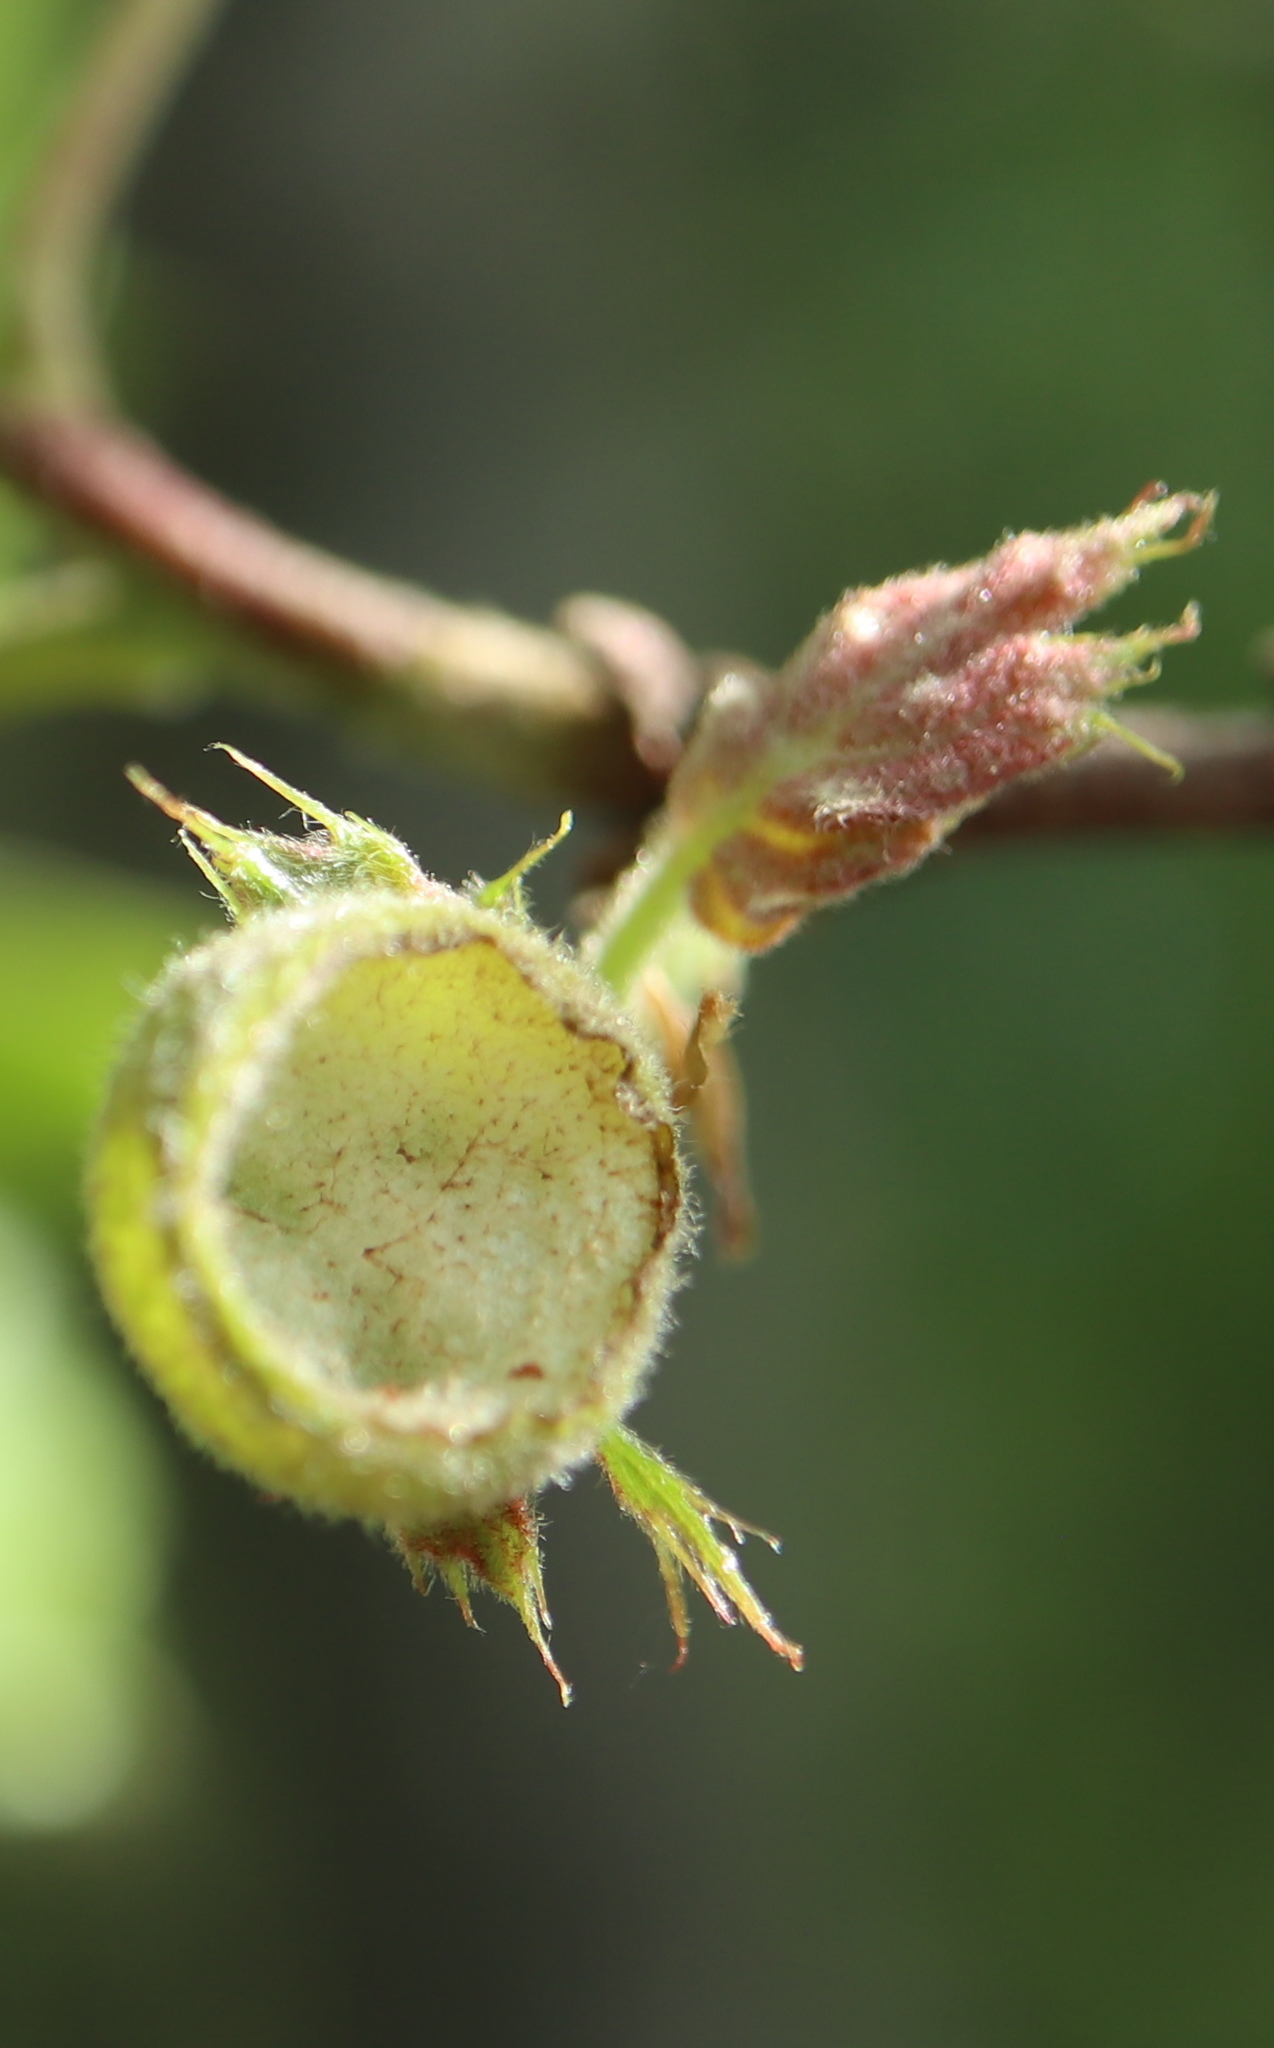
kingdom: Animalia
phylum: Arthropoda
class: Insecta
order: Hymenoptera
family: Cynipidae
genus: Dryocosmus
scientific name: Dryocosmus quercuspalustris
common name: Succulent oak gall wasp
